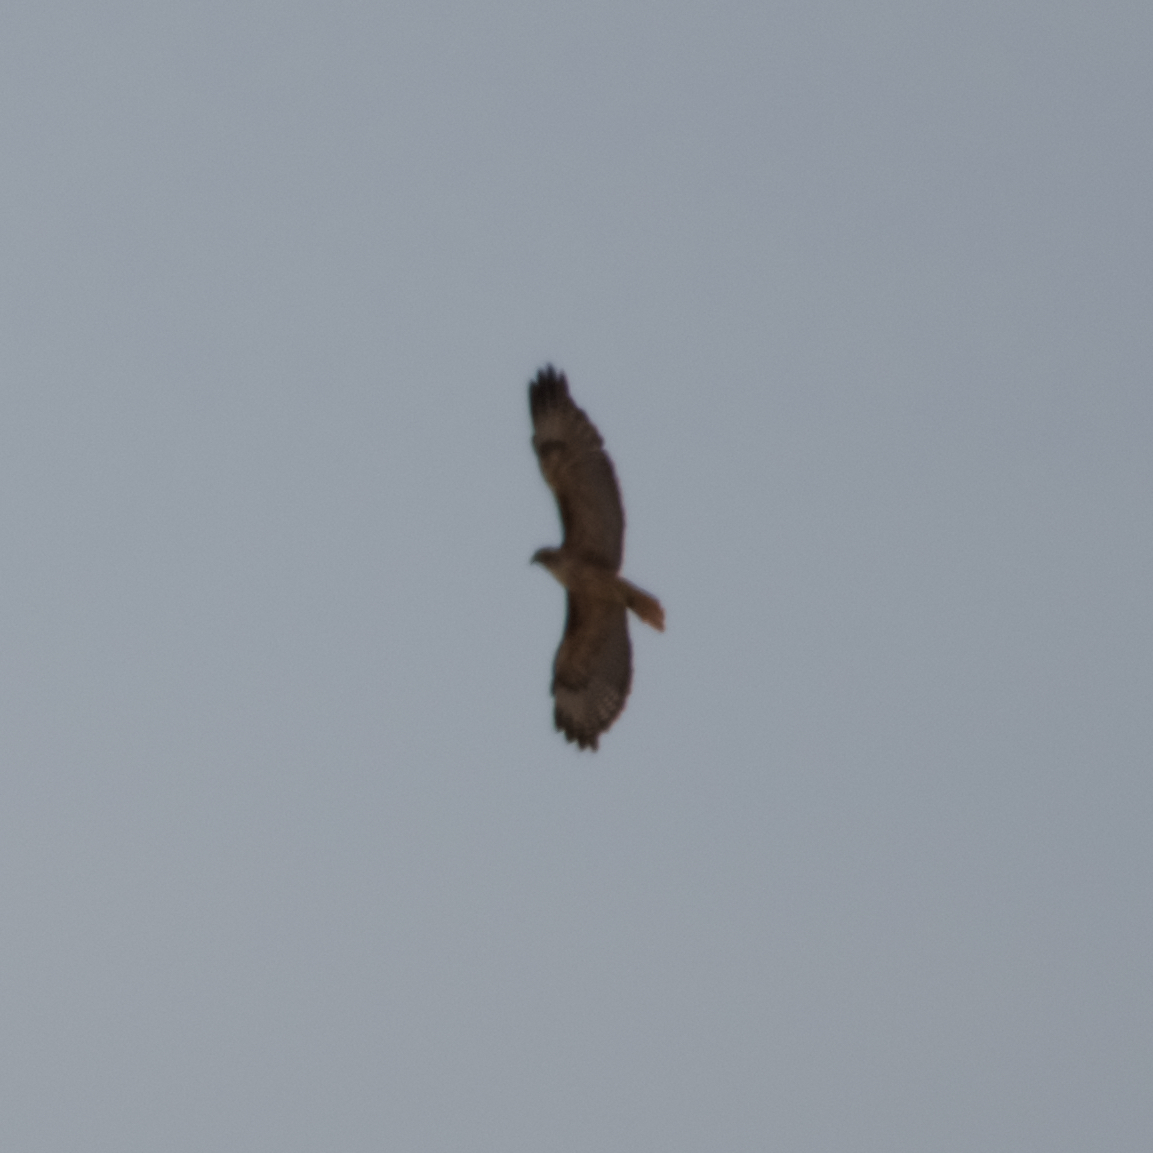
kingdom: Animalia
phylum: Chordata
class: Aves
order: Accipitriformes
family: Accipitridae
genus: Buteo
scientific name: Buteo jamaicensis
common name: Red-tailed hawk
